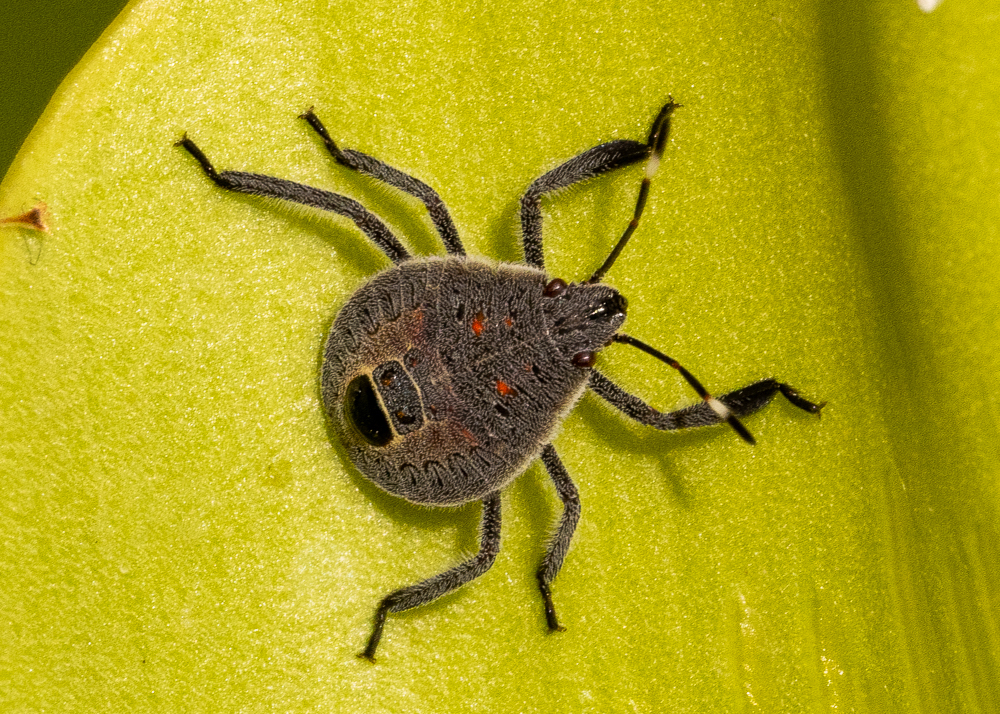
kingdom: Animalia
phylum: Arthropoda
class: Insecta
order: Hemiptera
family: Pentatomidae
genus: Erthesina
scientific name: Erthesina acuminata
